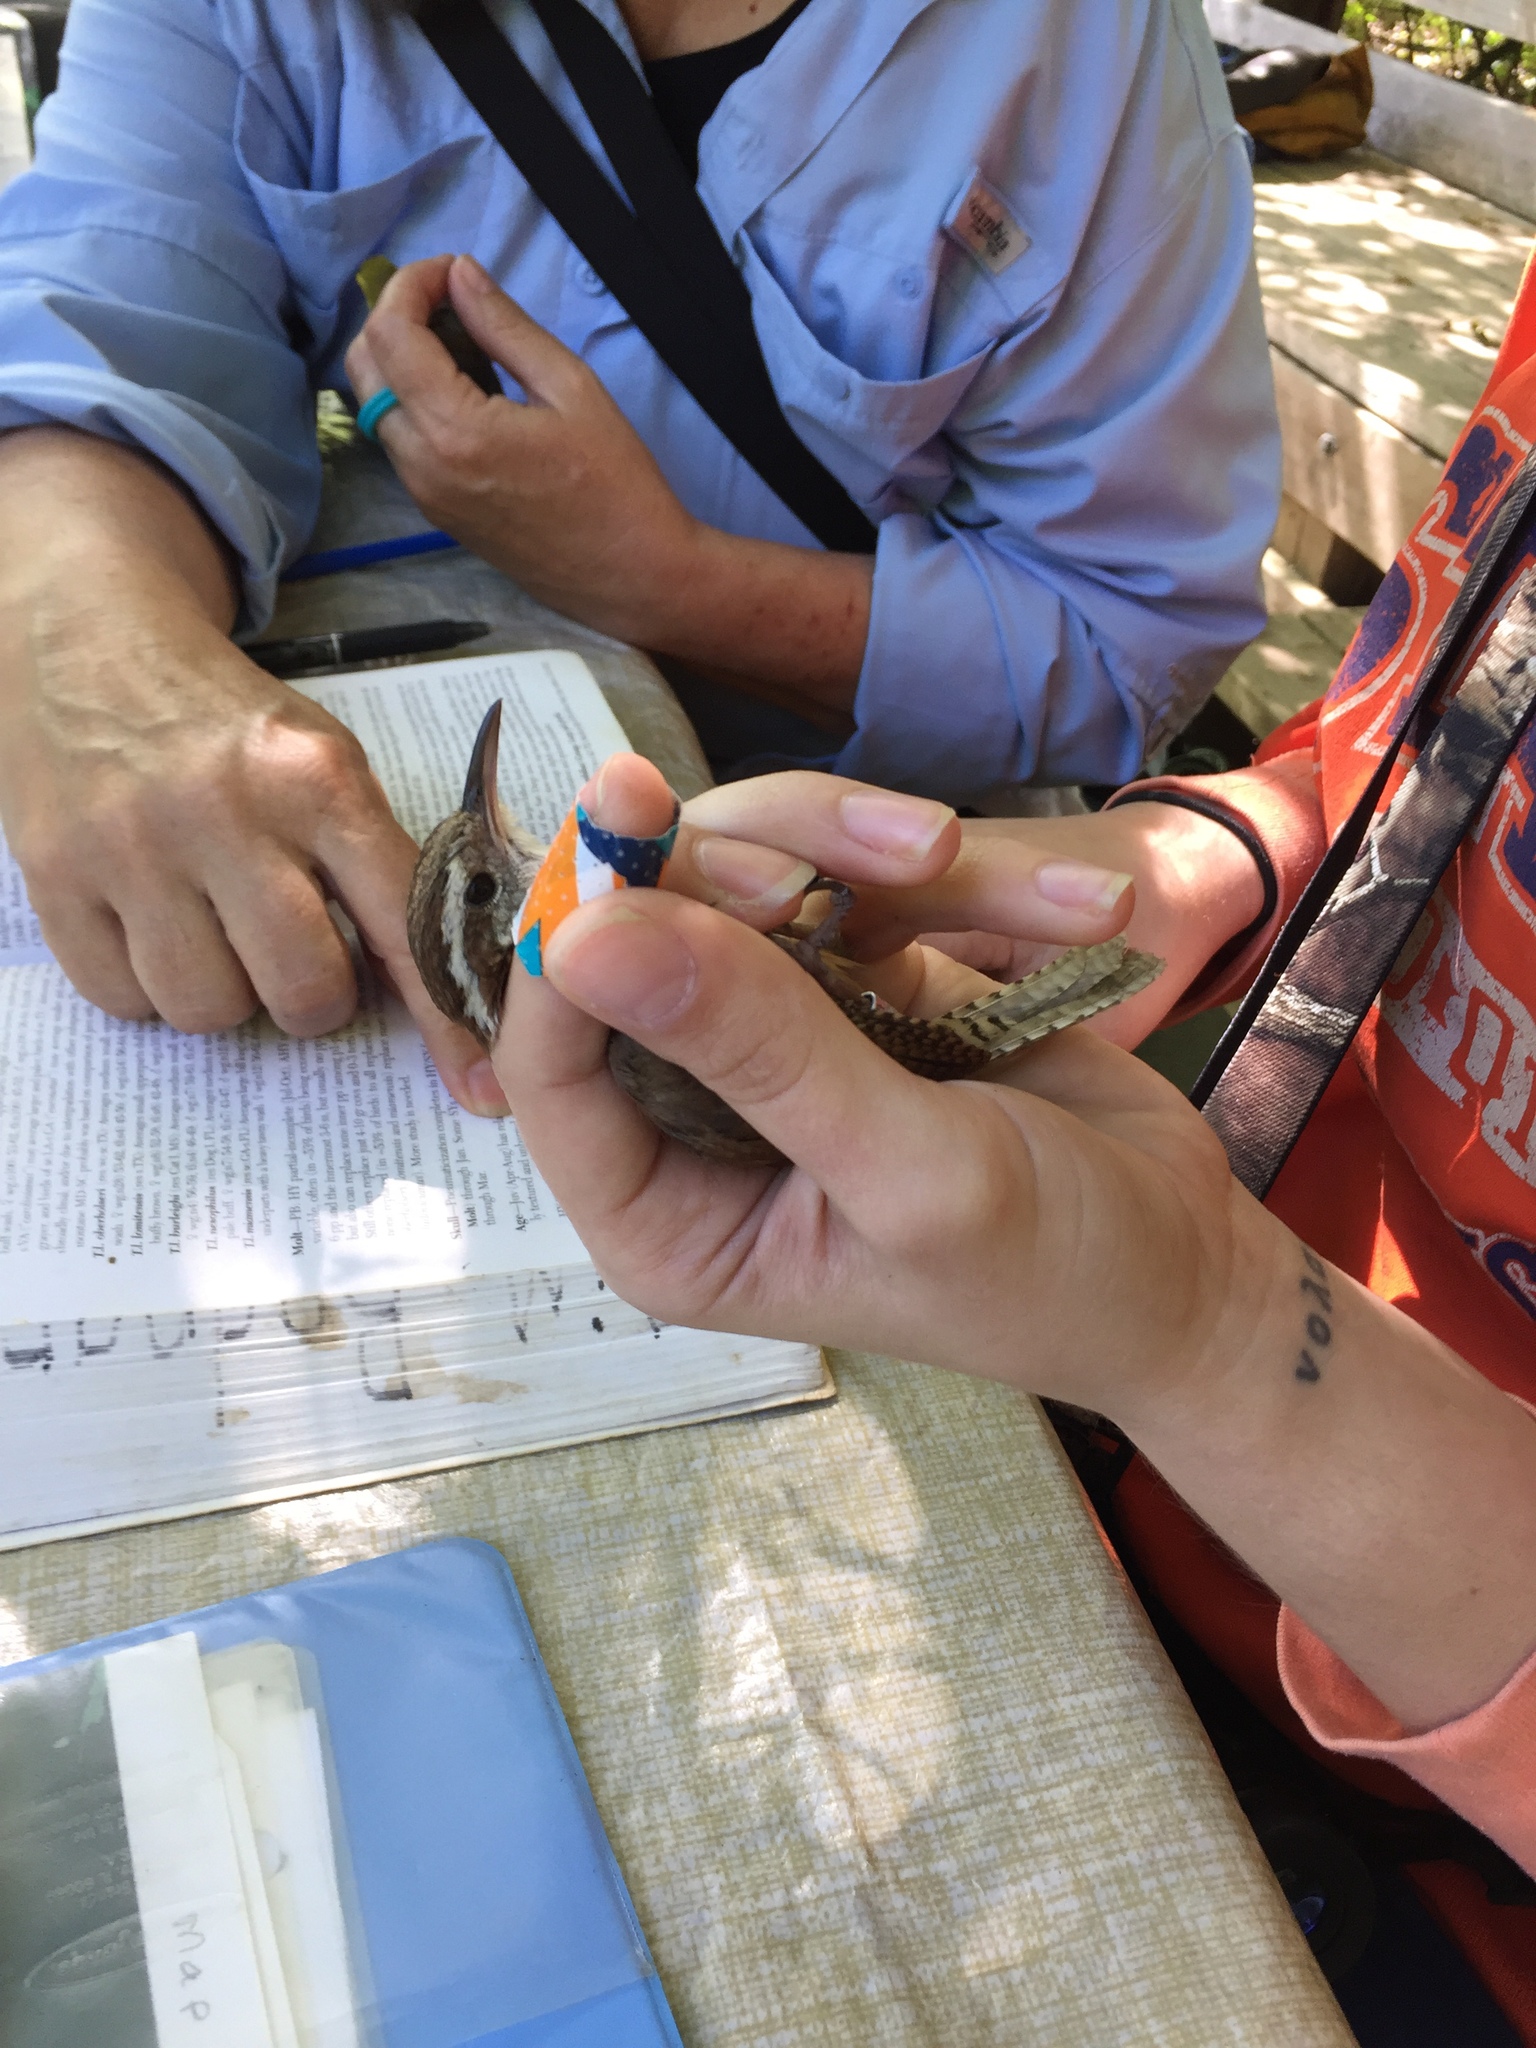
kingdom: Animalia
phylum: Chordata
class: Aves
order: Passeriformes
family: Troglodytidae
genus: Thryothorus
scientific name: Thryothorus ludovicianus
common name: Carolina wren
